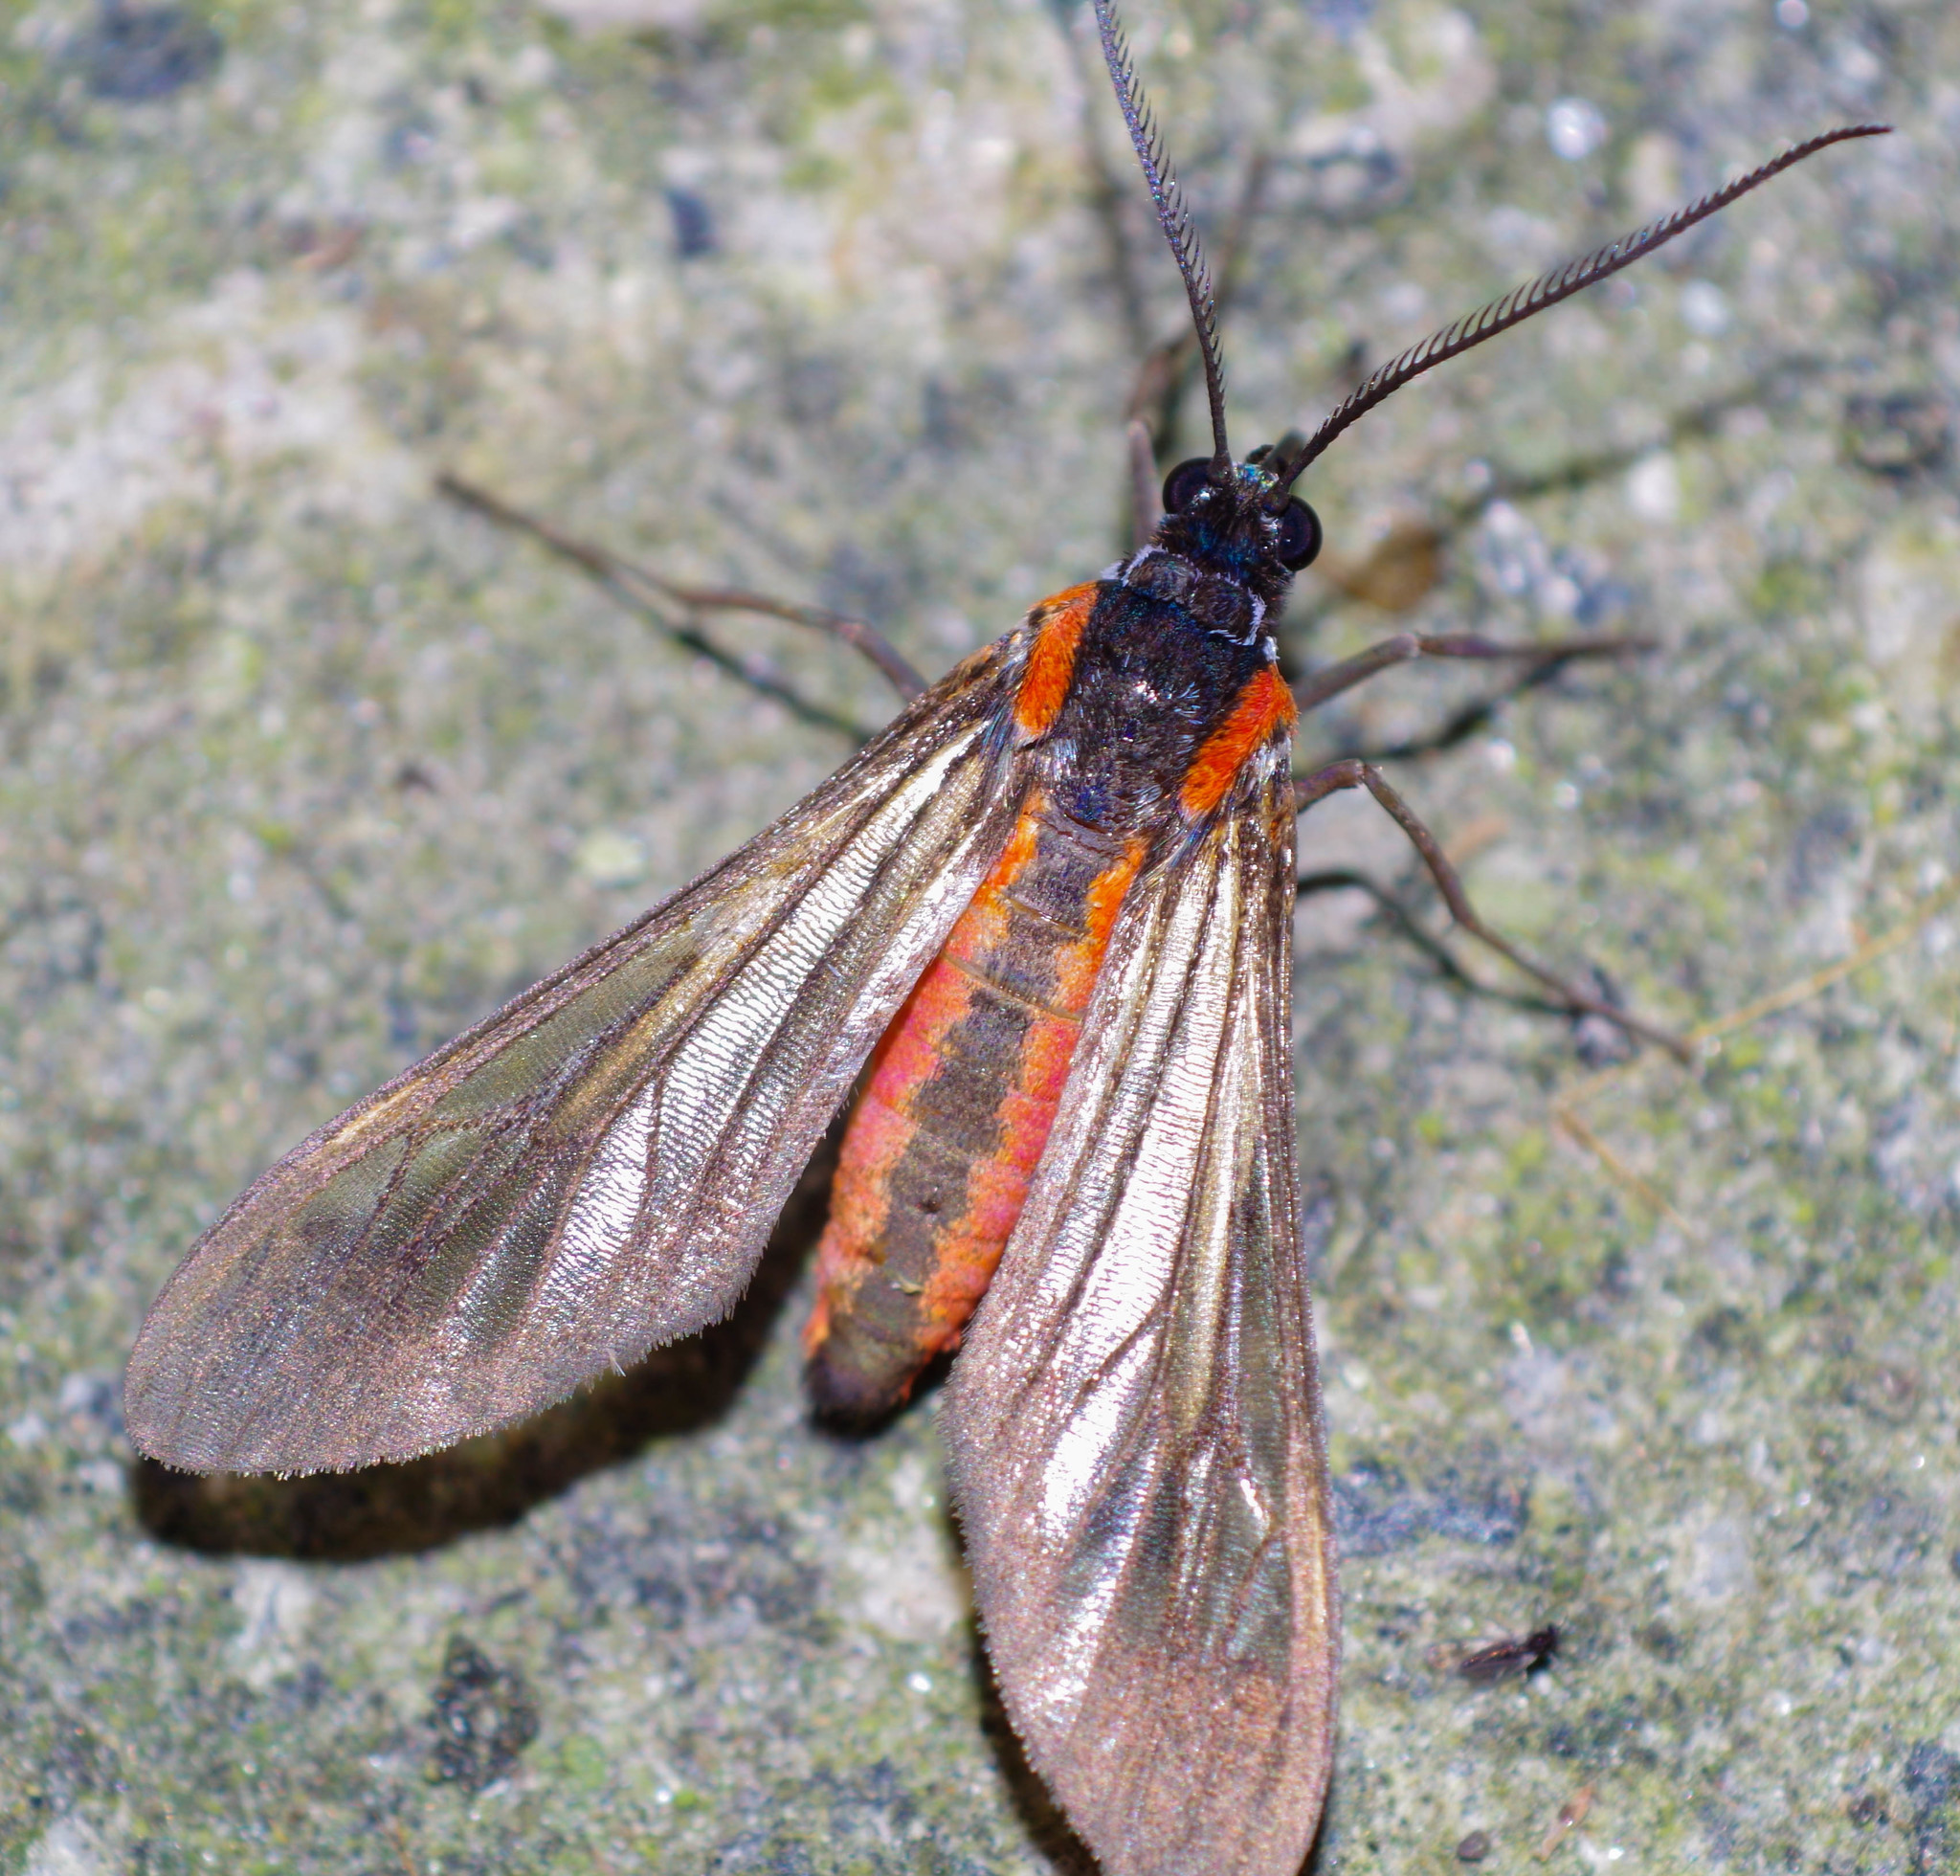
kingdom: Animalia
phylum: Arthropoda
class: Insecta
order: Lepidoptera
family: Erebidae
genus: Rhynchopyga
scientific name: Rhynchopyga semirufa
